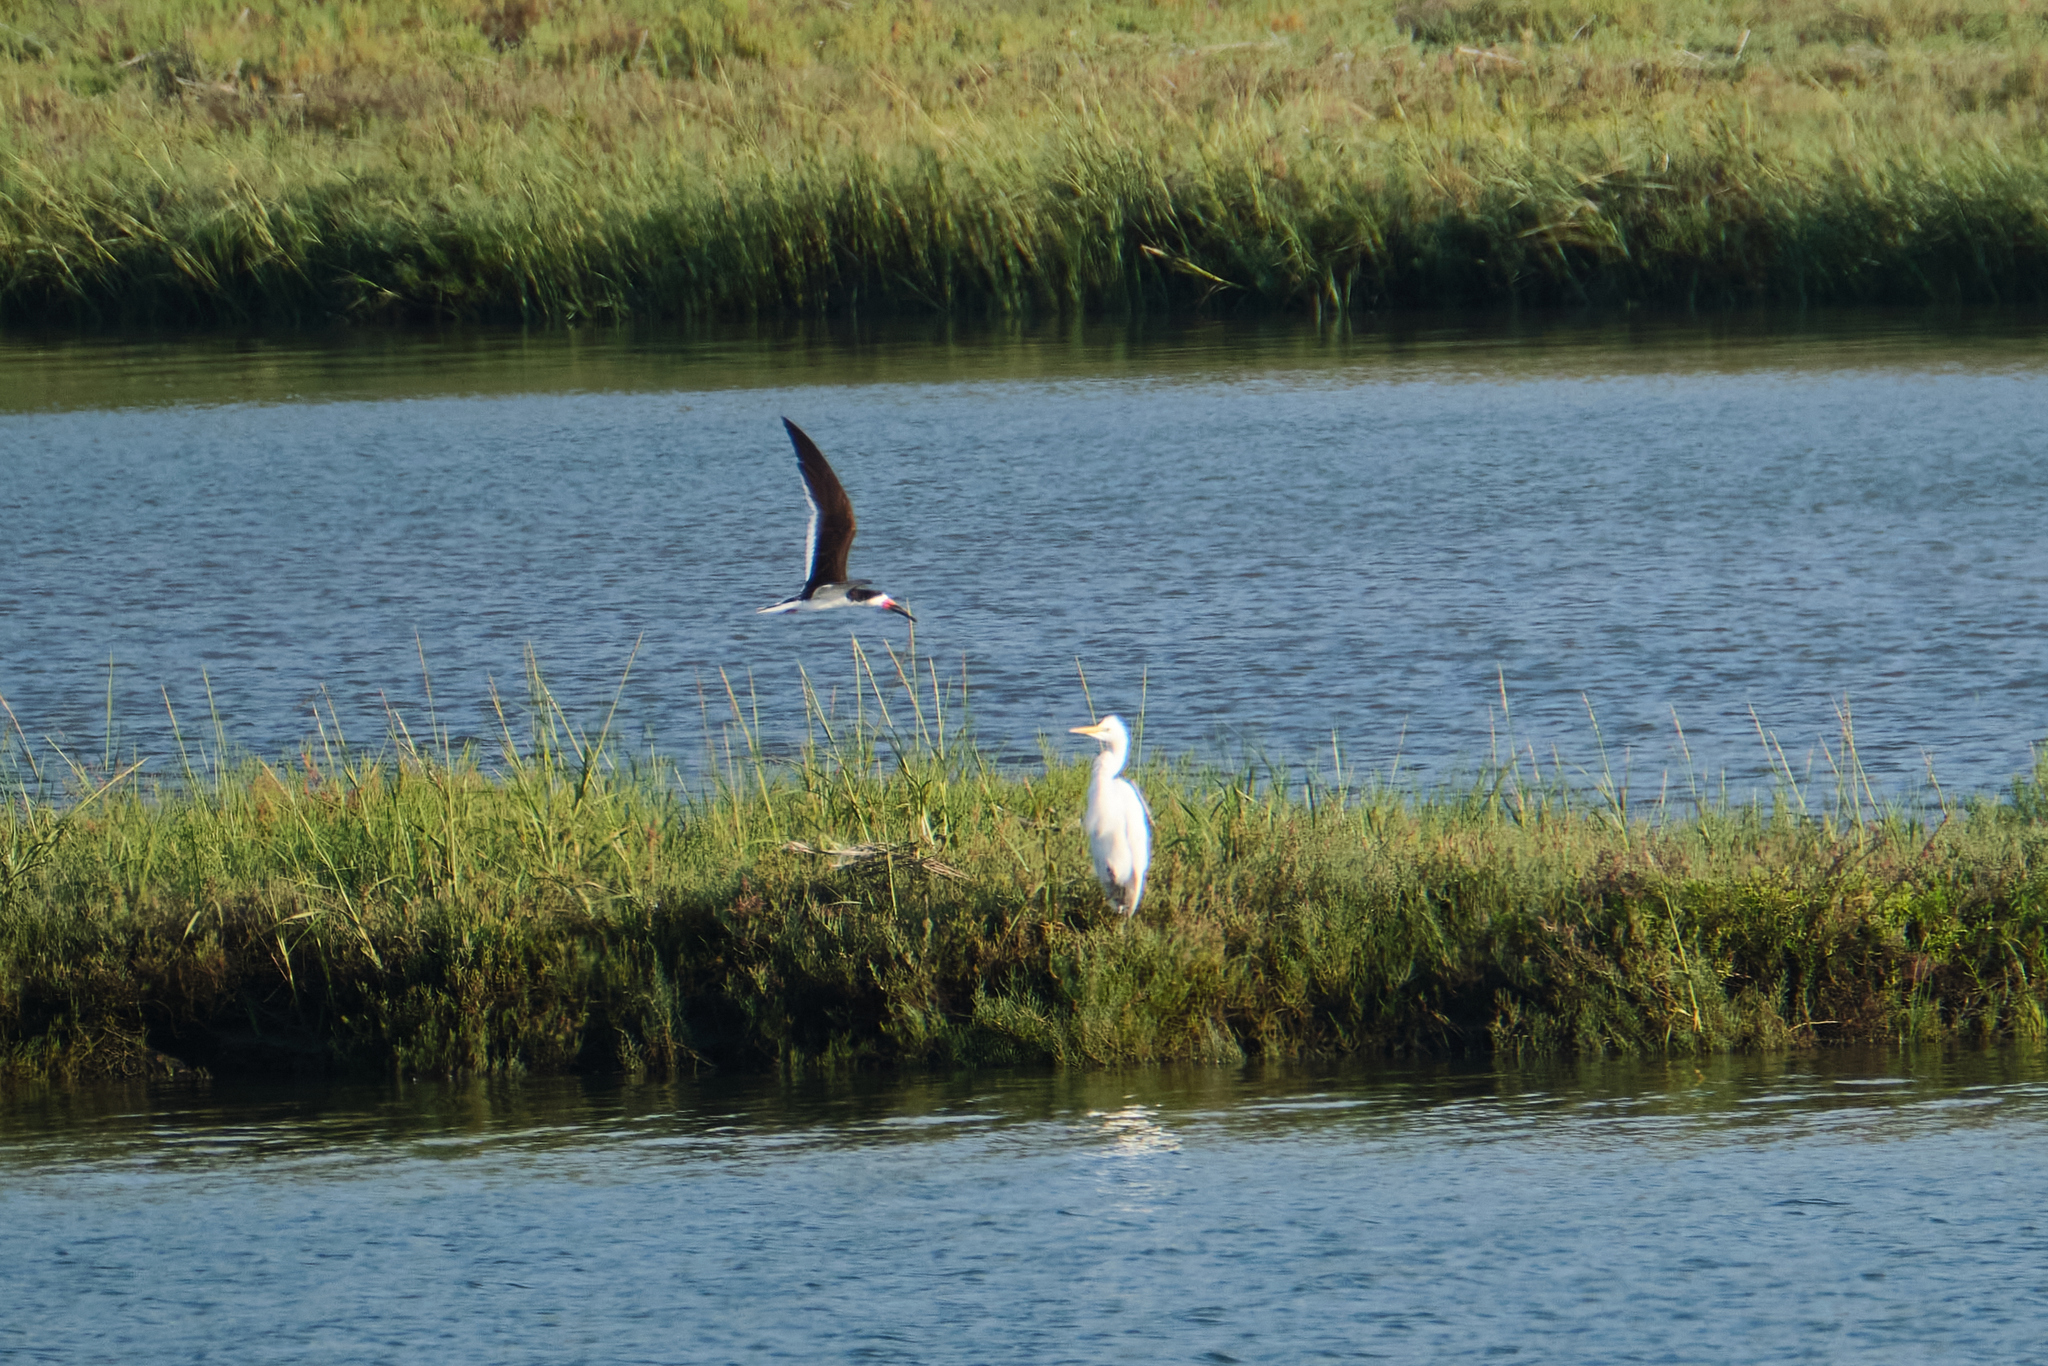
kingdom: Animalia
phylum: Chordata
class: Aves
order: Pelecaniformes
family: Ardeidae
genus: Ardea
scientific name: Ardea alba
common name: Great egret
